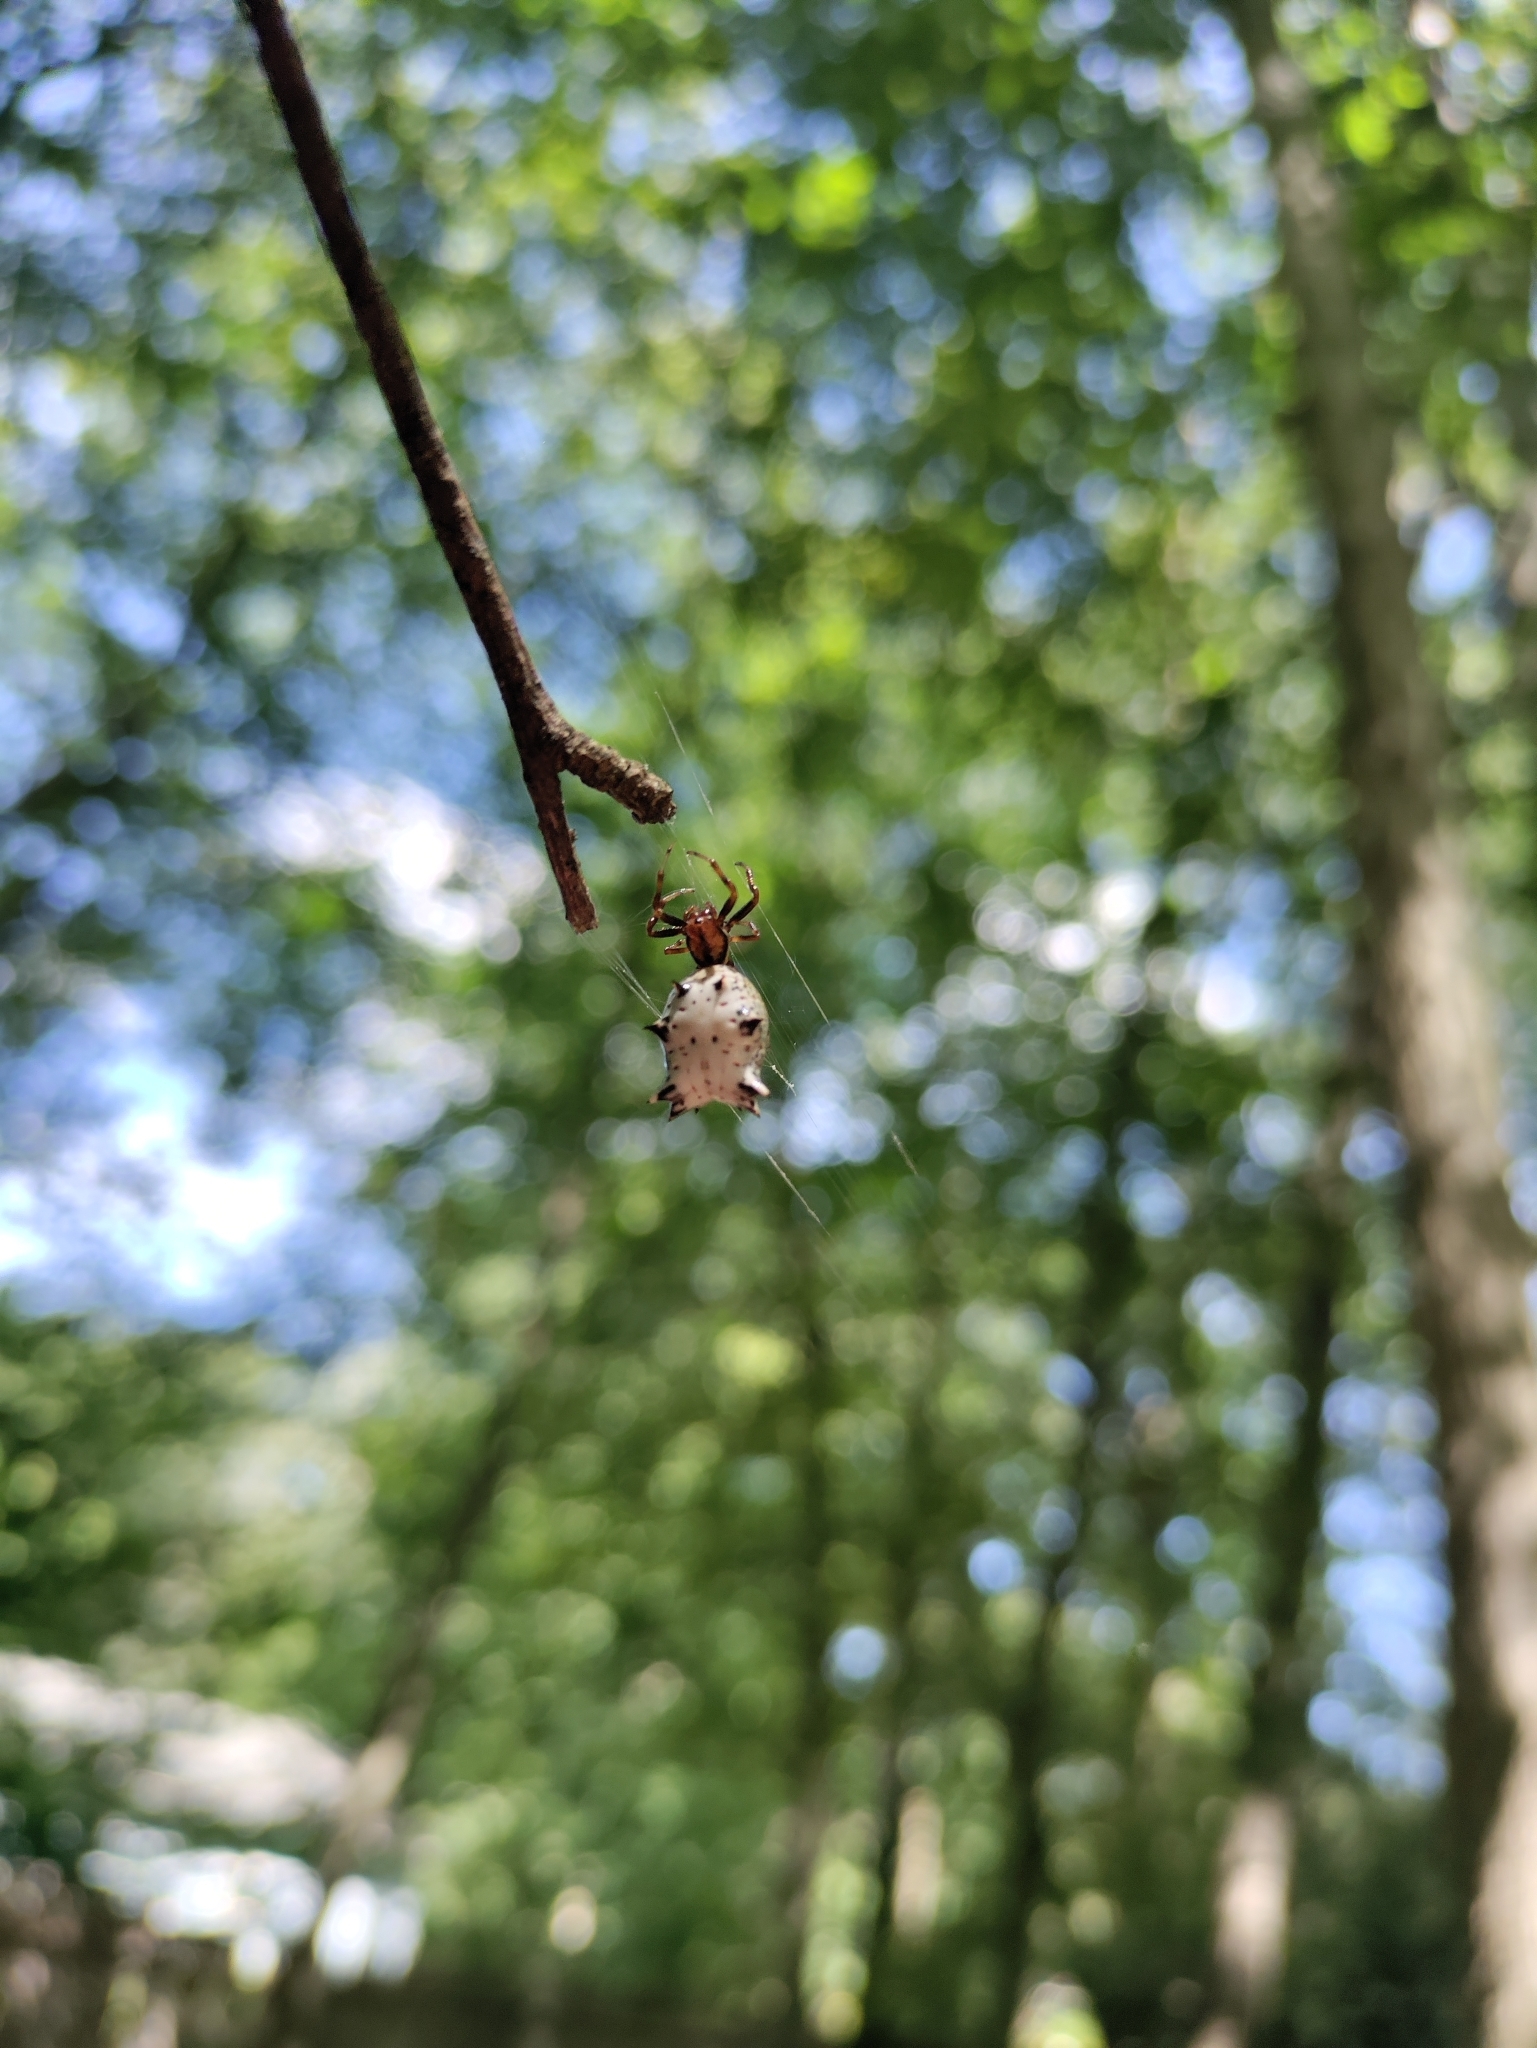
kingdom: Animalia
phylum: Arthropoda
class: Arachnida
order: Araneae
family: Araneidae
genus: Micrathena
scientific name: Micrathena gracilis
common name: Orb weavers
